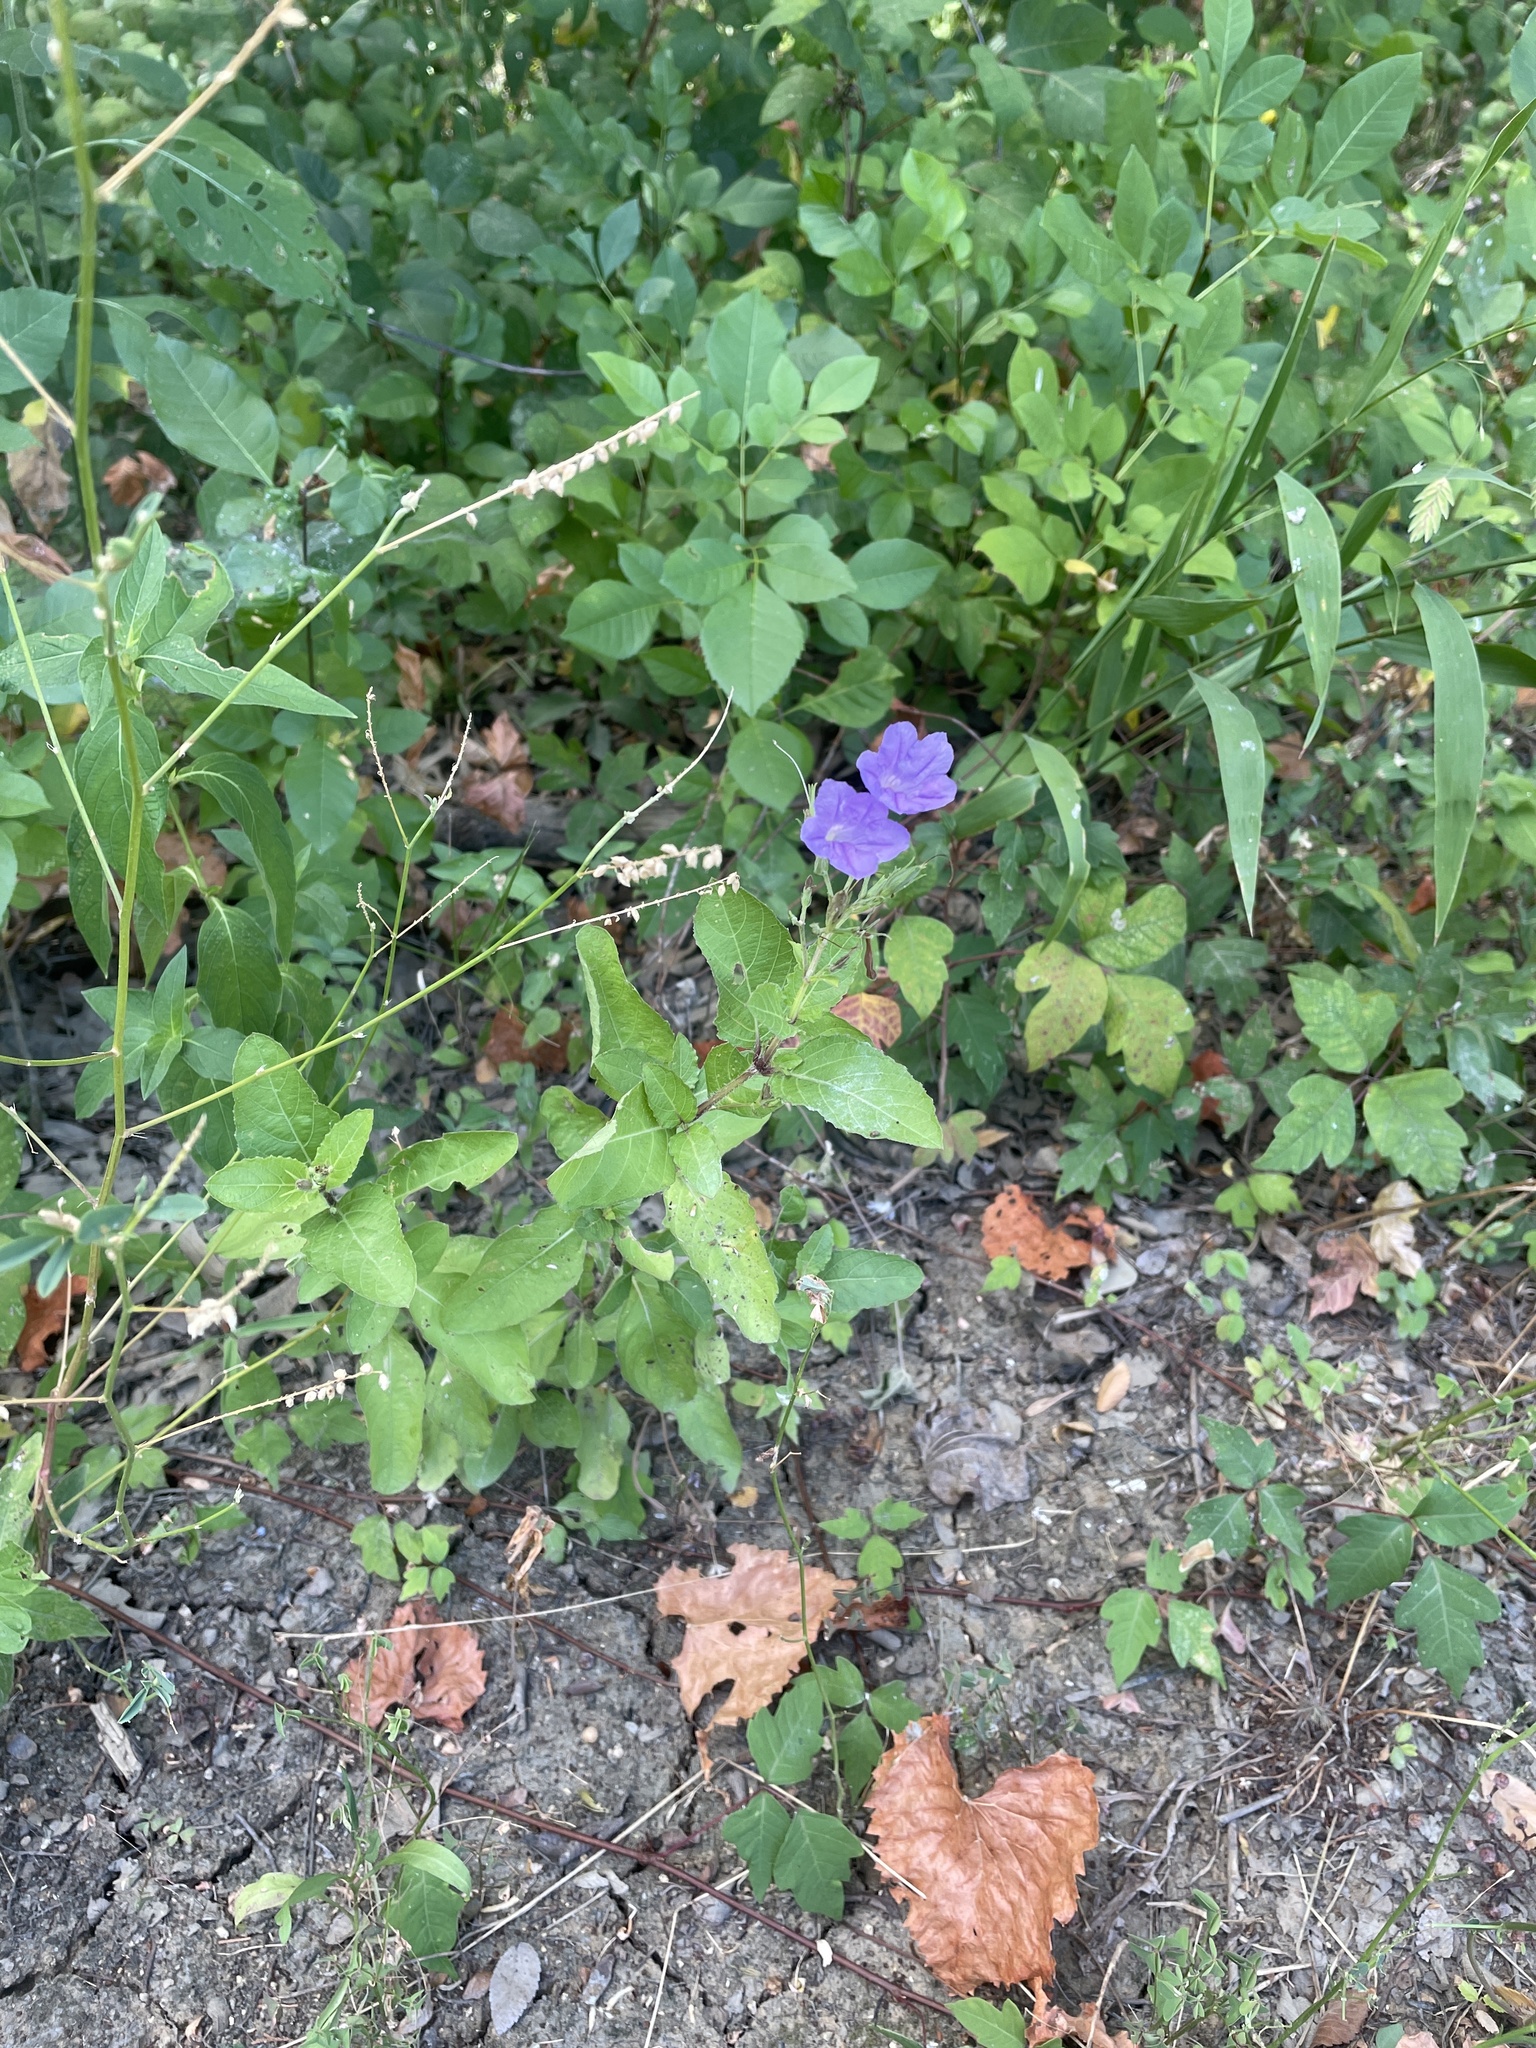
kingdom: Plantae
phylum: Tracheophyta
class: Magnoliopsida
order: Lamiales
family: Acanthaceae
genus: Ruellia
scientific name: Ruellia ciliatiflora
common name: Hairyflower wild petunia
